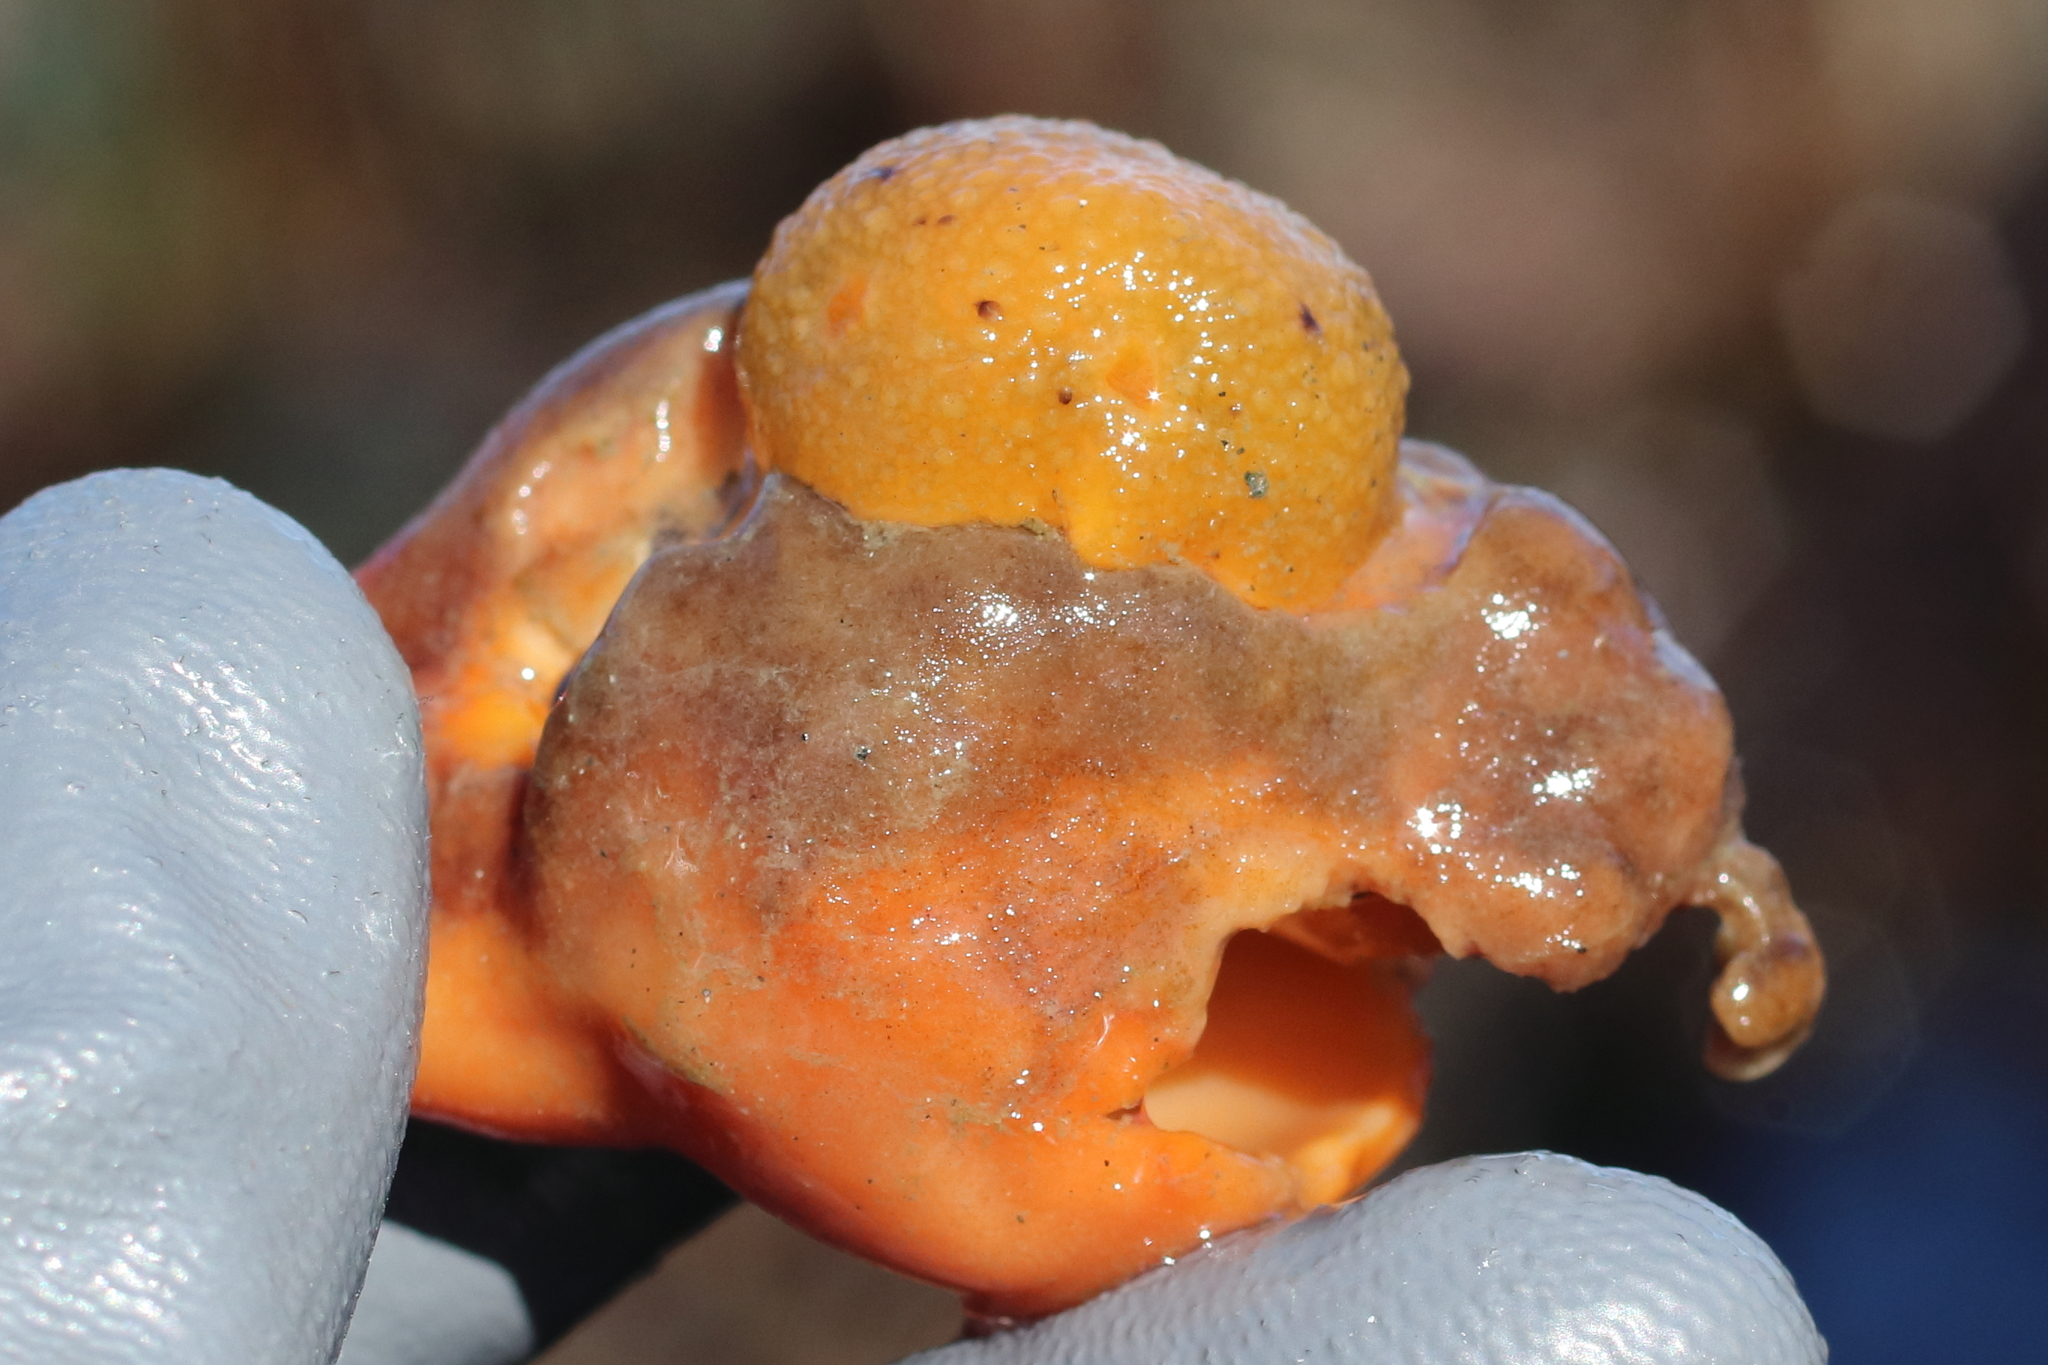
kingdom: Animalia
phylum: Mollusca
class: Gastropoda
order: Nudibranchia
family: Dorididae
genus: Doris
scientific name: Doris montereyensis
